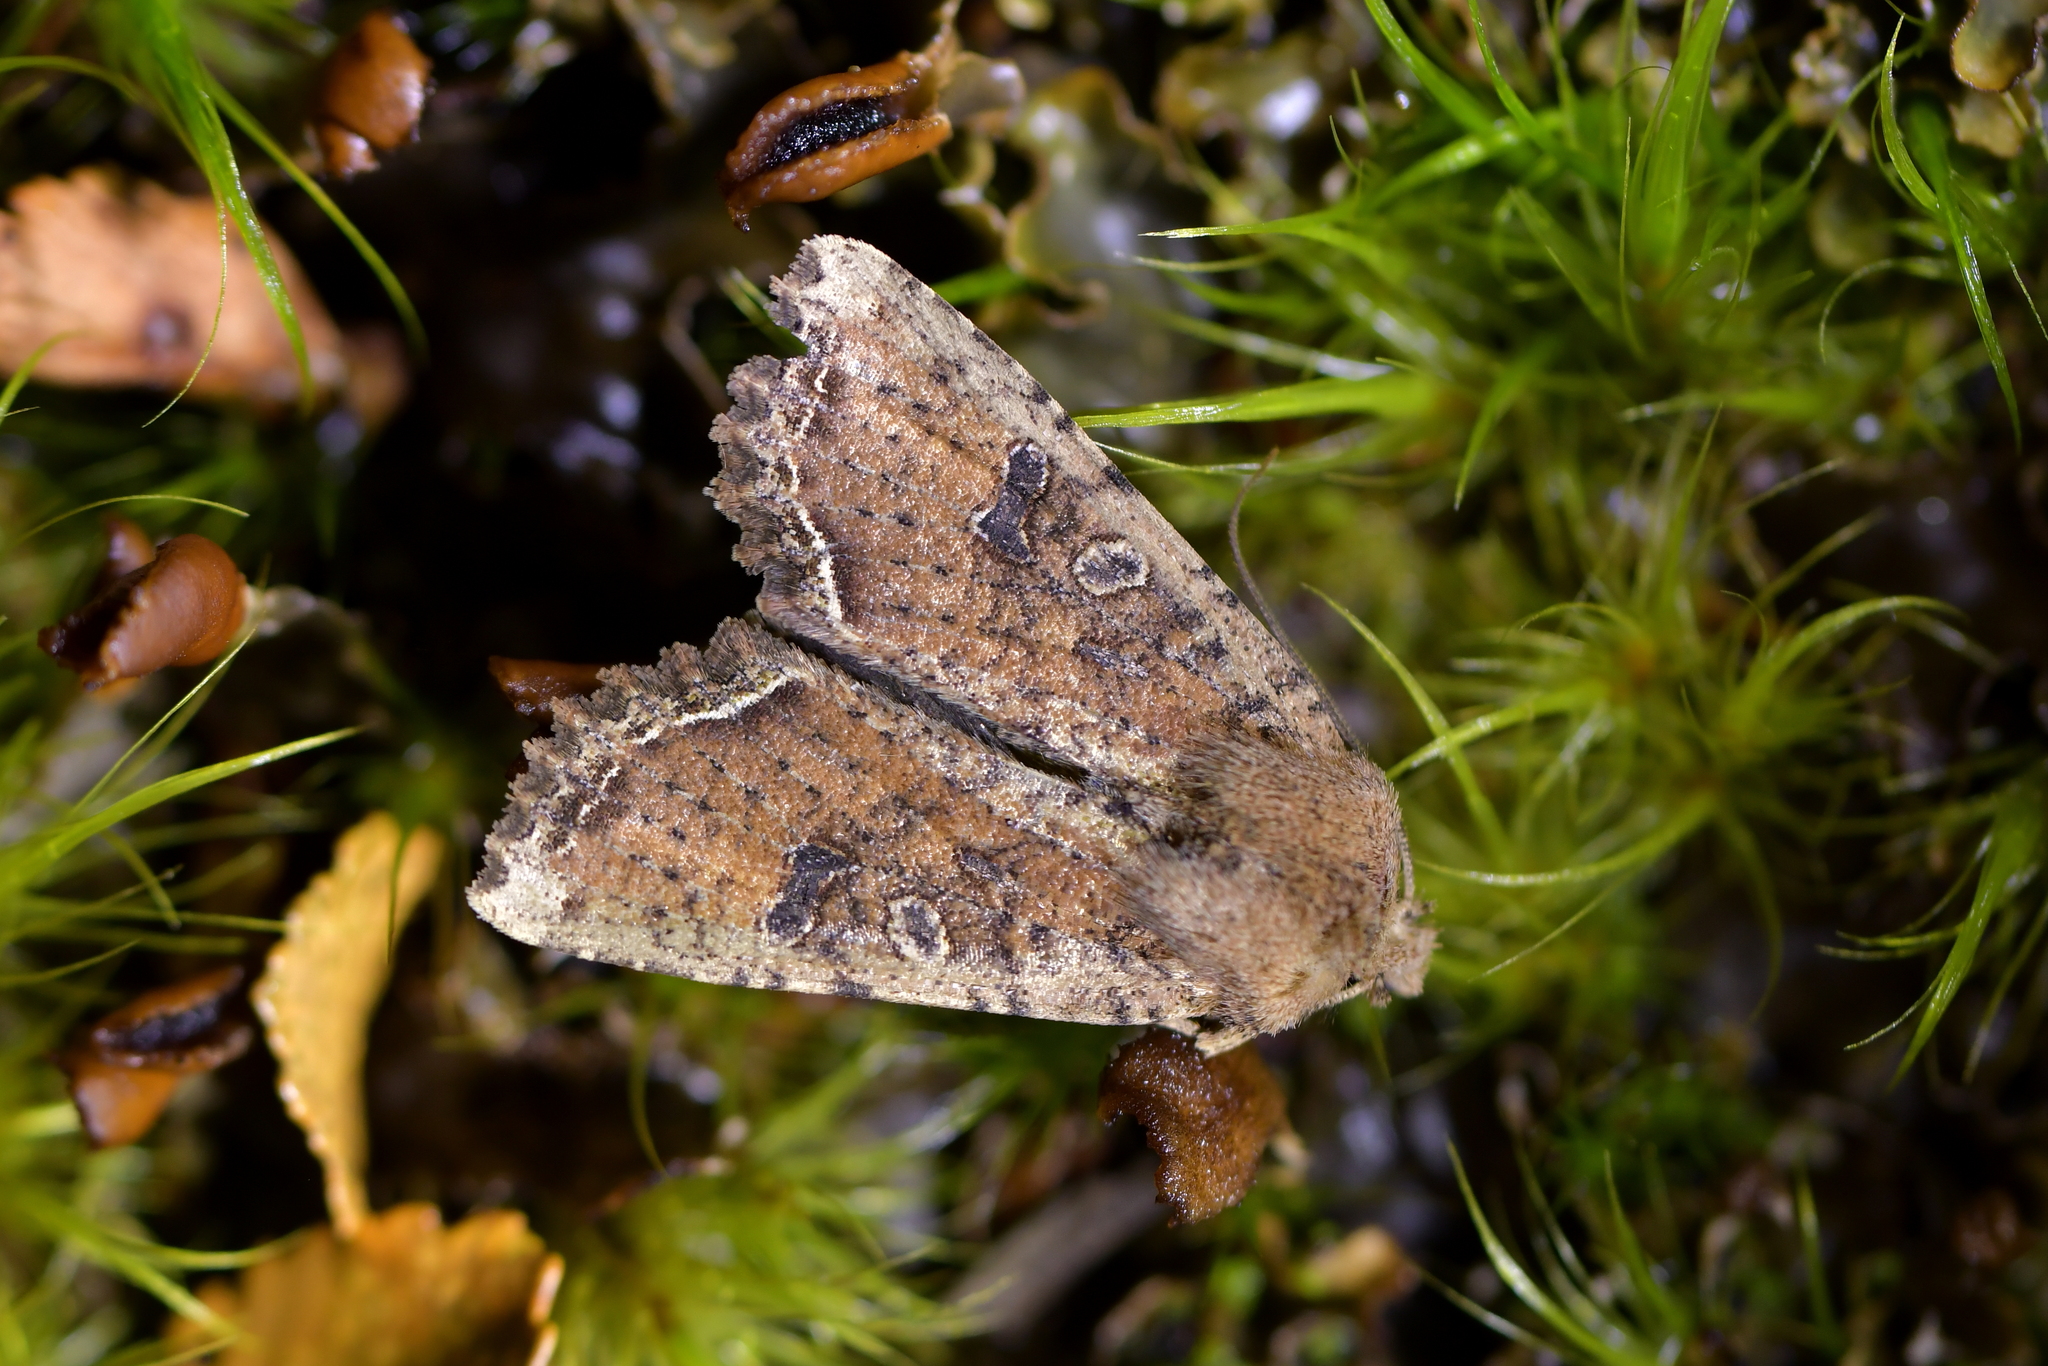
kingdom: Animalia
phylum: Arthropoda
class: Insecta
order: Lepidoptera
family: Noctuidae
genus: Meterana
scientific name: Meterana inchoata
